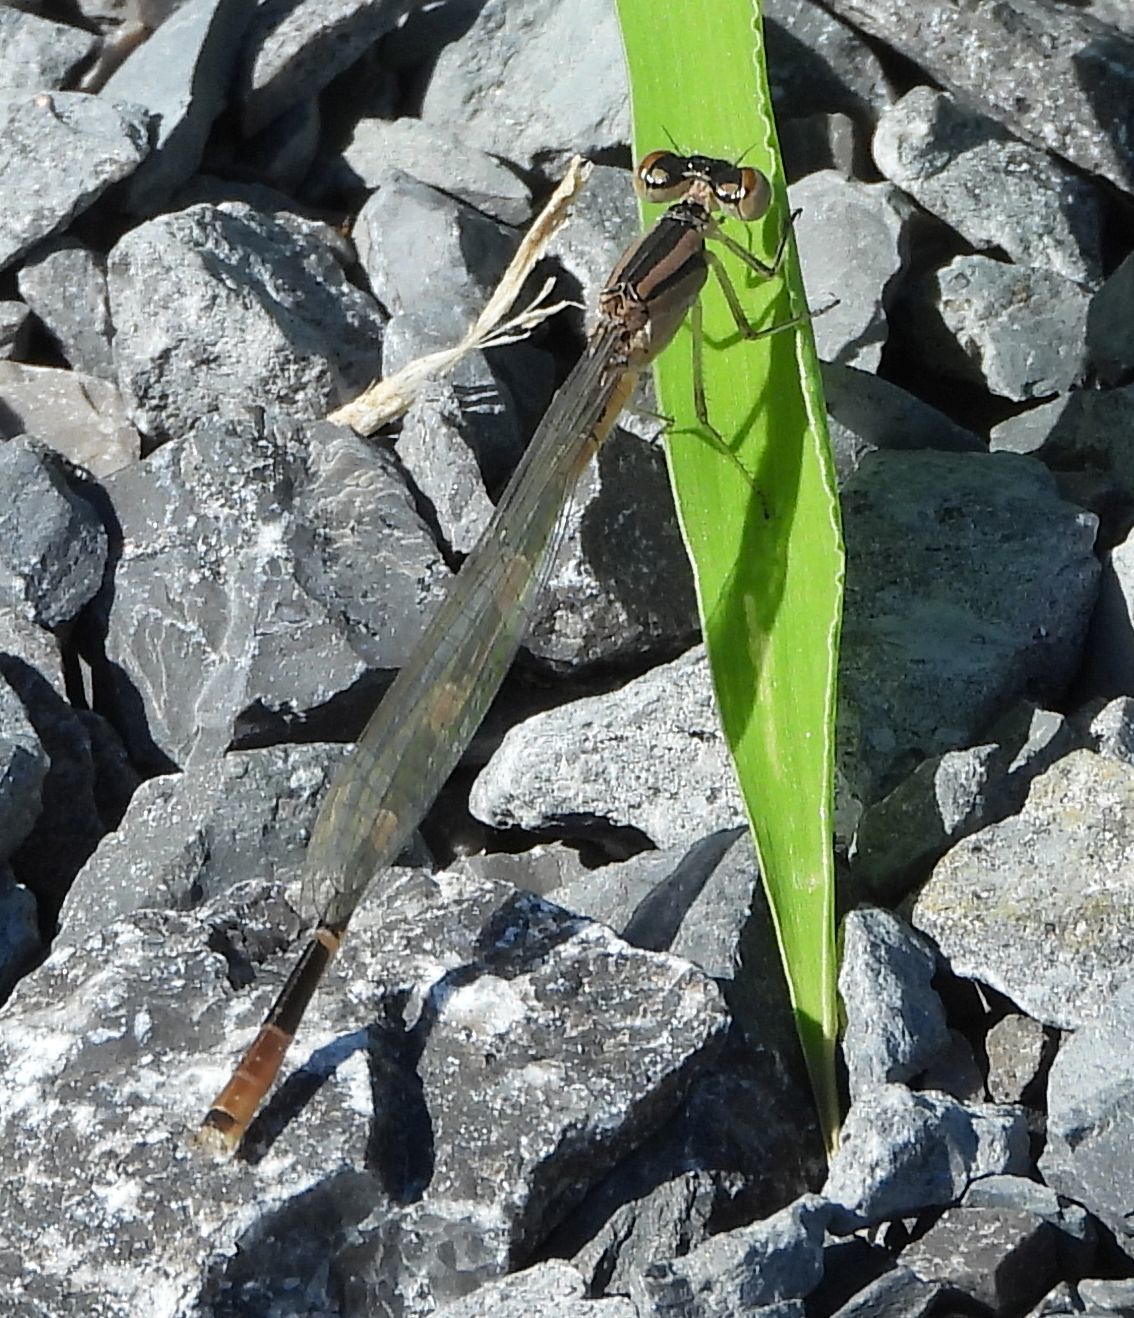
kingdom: Animalia
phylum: Arthropoda
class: Insecta
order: Odonata
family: Coenagrionidae
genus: Enallagma
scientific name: Enallagma carunculatum
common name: Tule bluet
